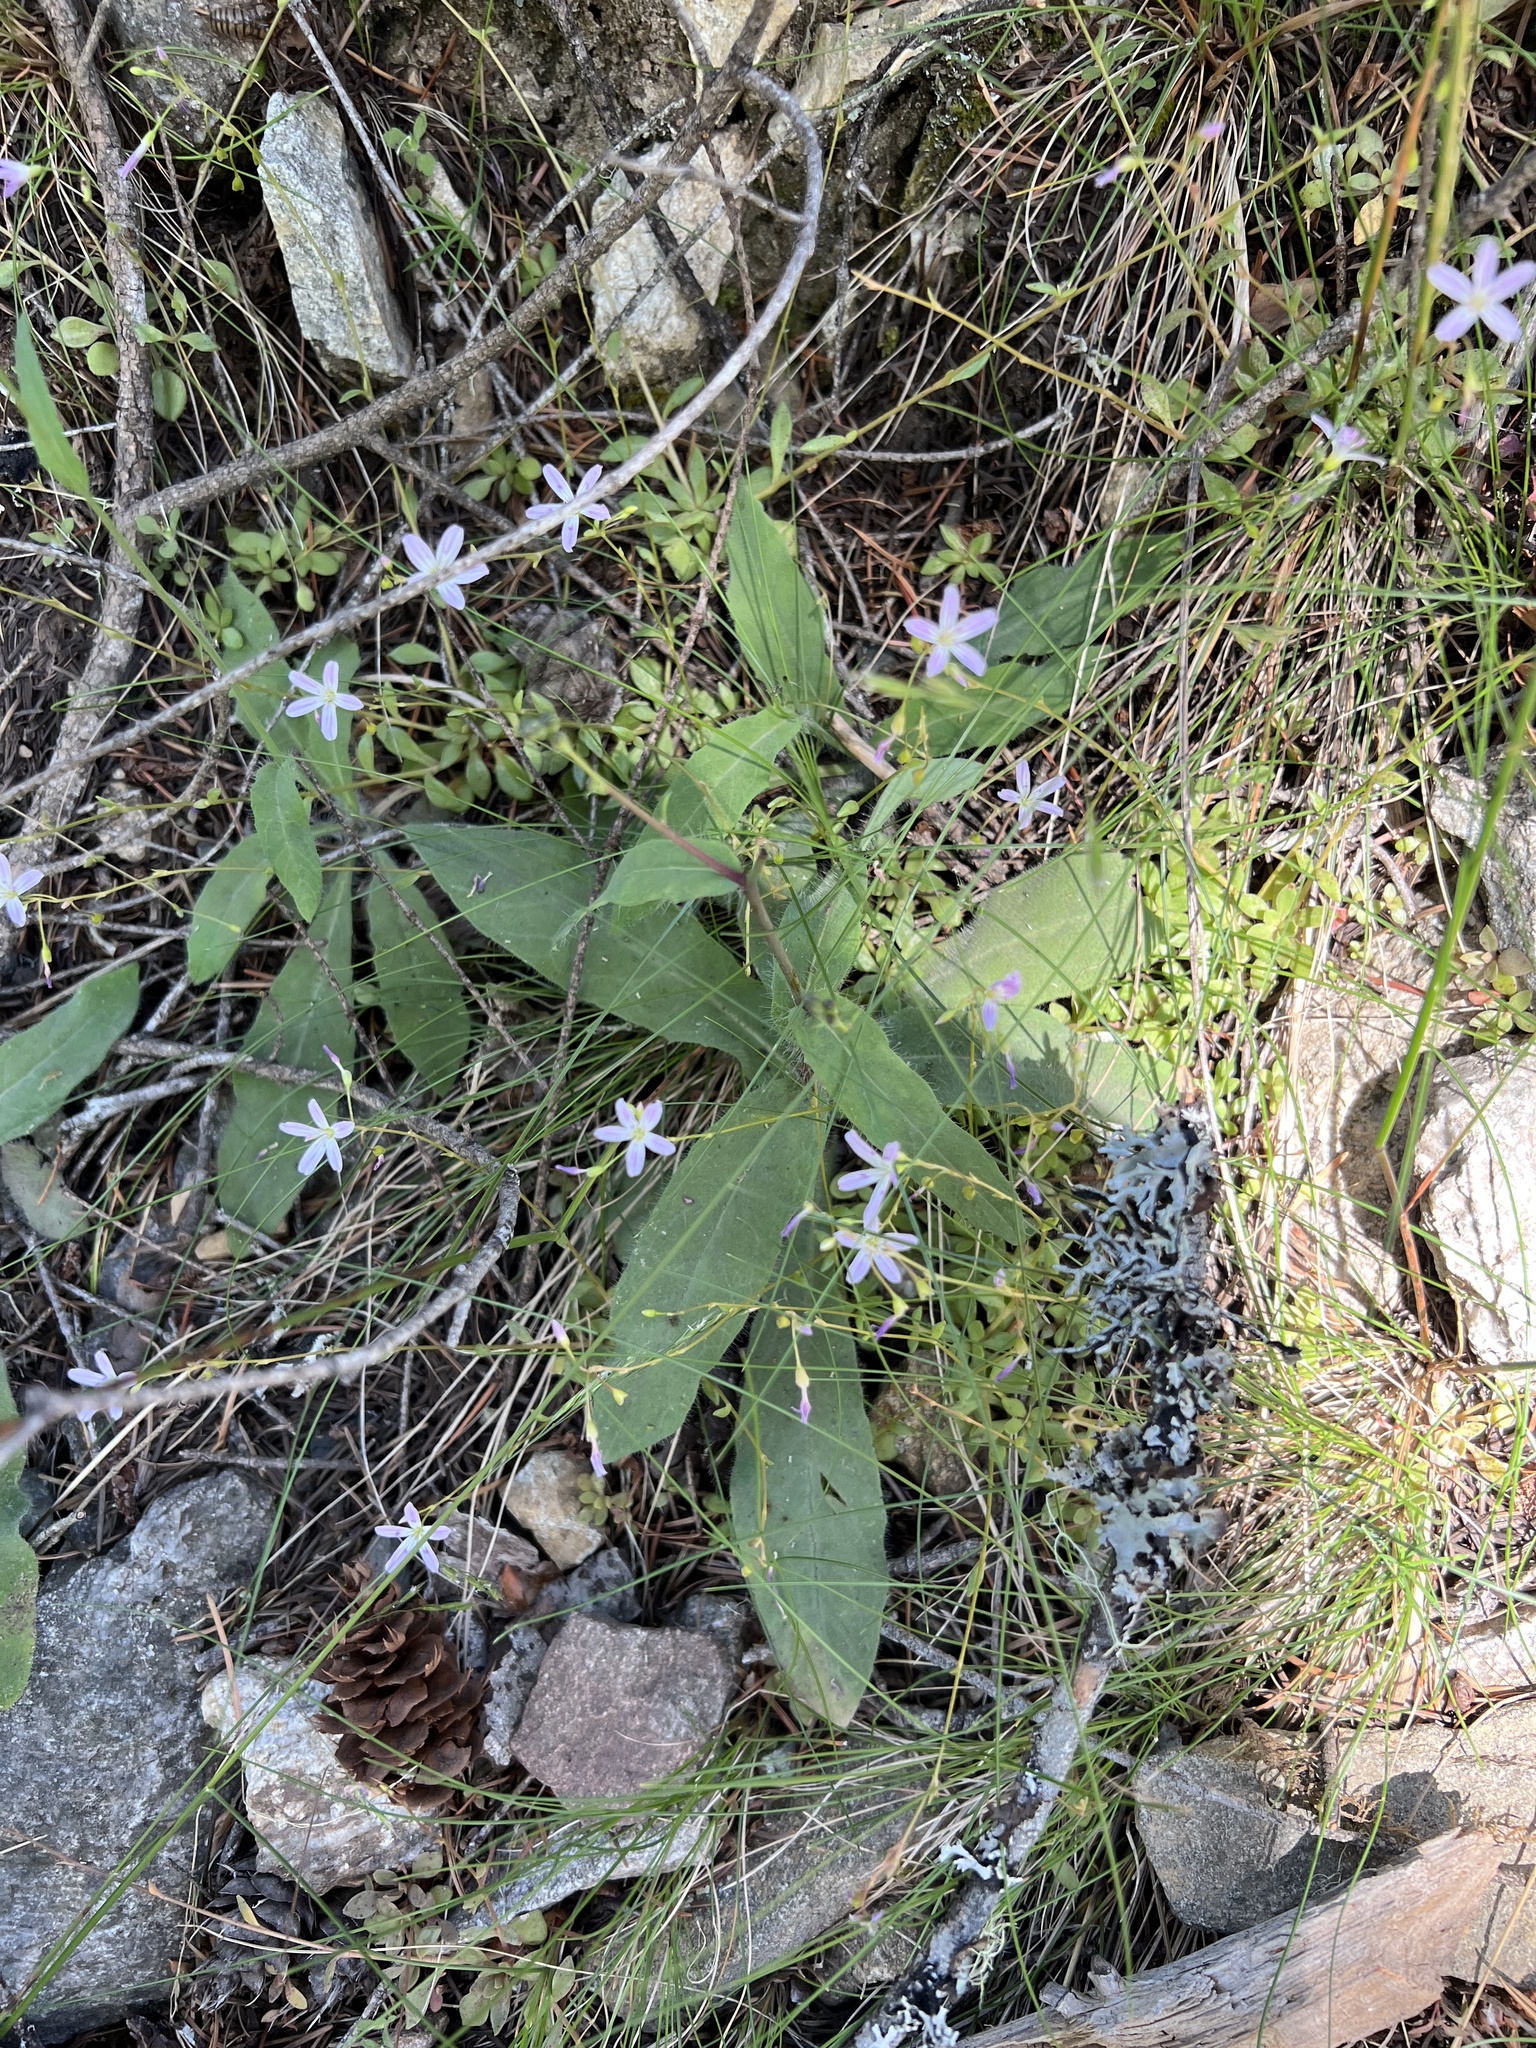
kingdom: Plantae
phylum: Tracheophyta
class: Magnoliopsida
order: Caryophyllales
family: Montiaceae
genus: Montia
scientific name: Montia parvifolia
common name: Small-leaved blinks
